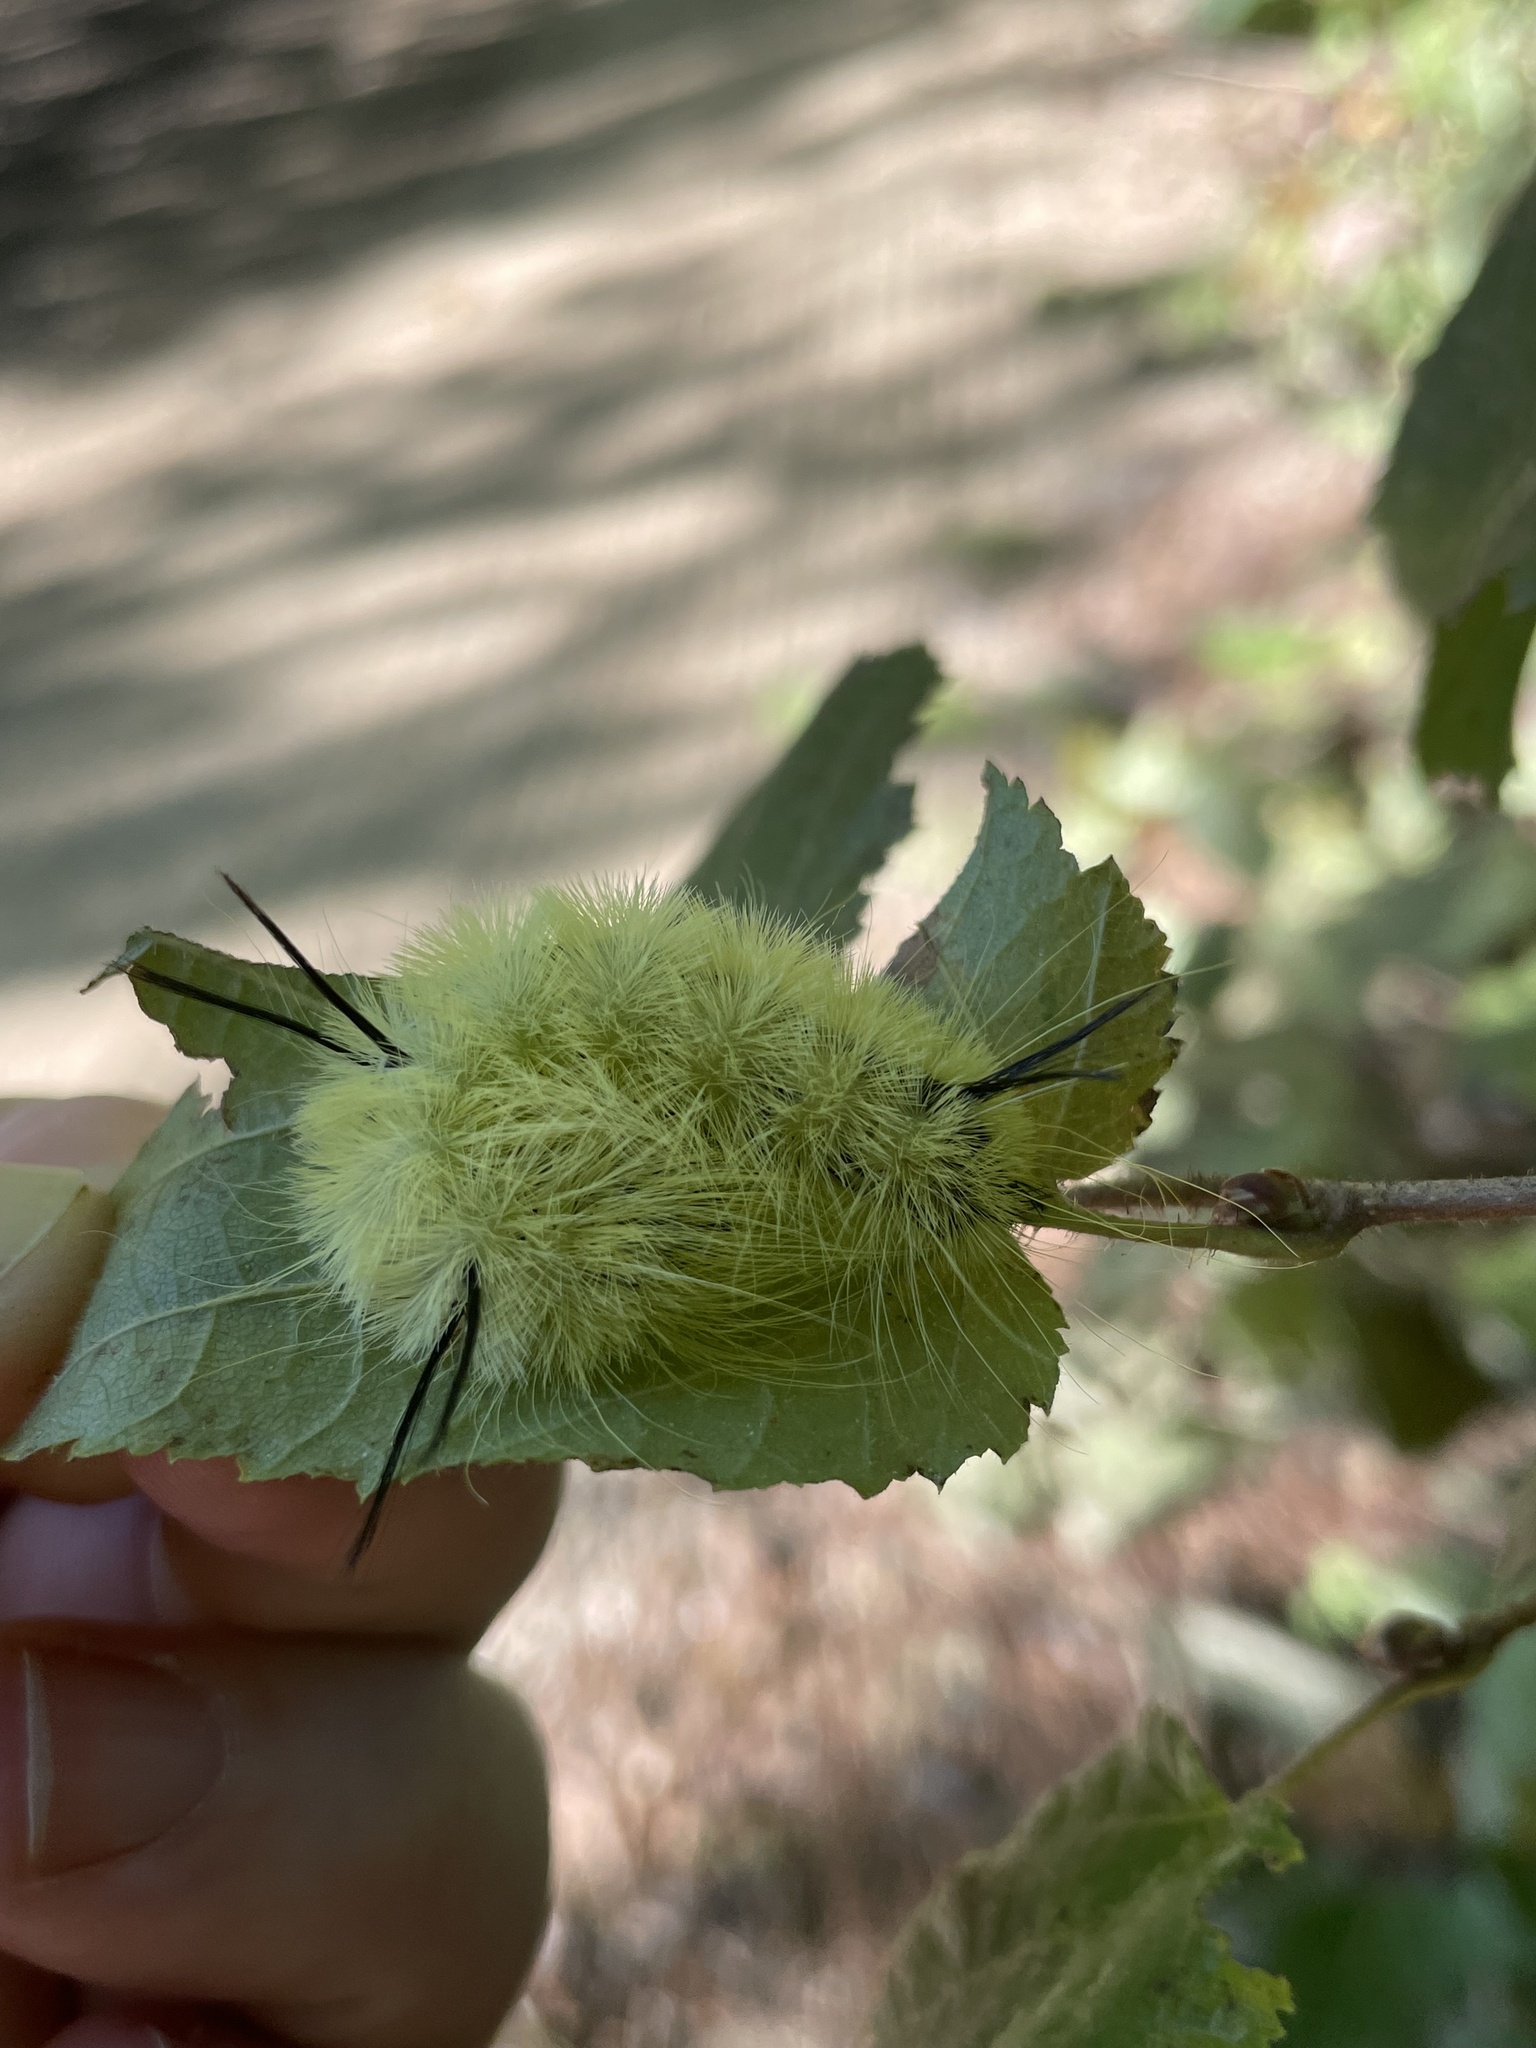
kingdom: Animalia
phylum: Arthropoda
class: Insecta
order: Lepidoptera
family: Noctuidae
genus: Acronicta
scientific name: Acronicta americana
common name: American dagger
